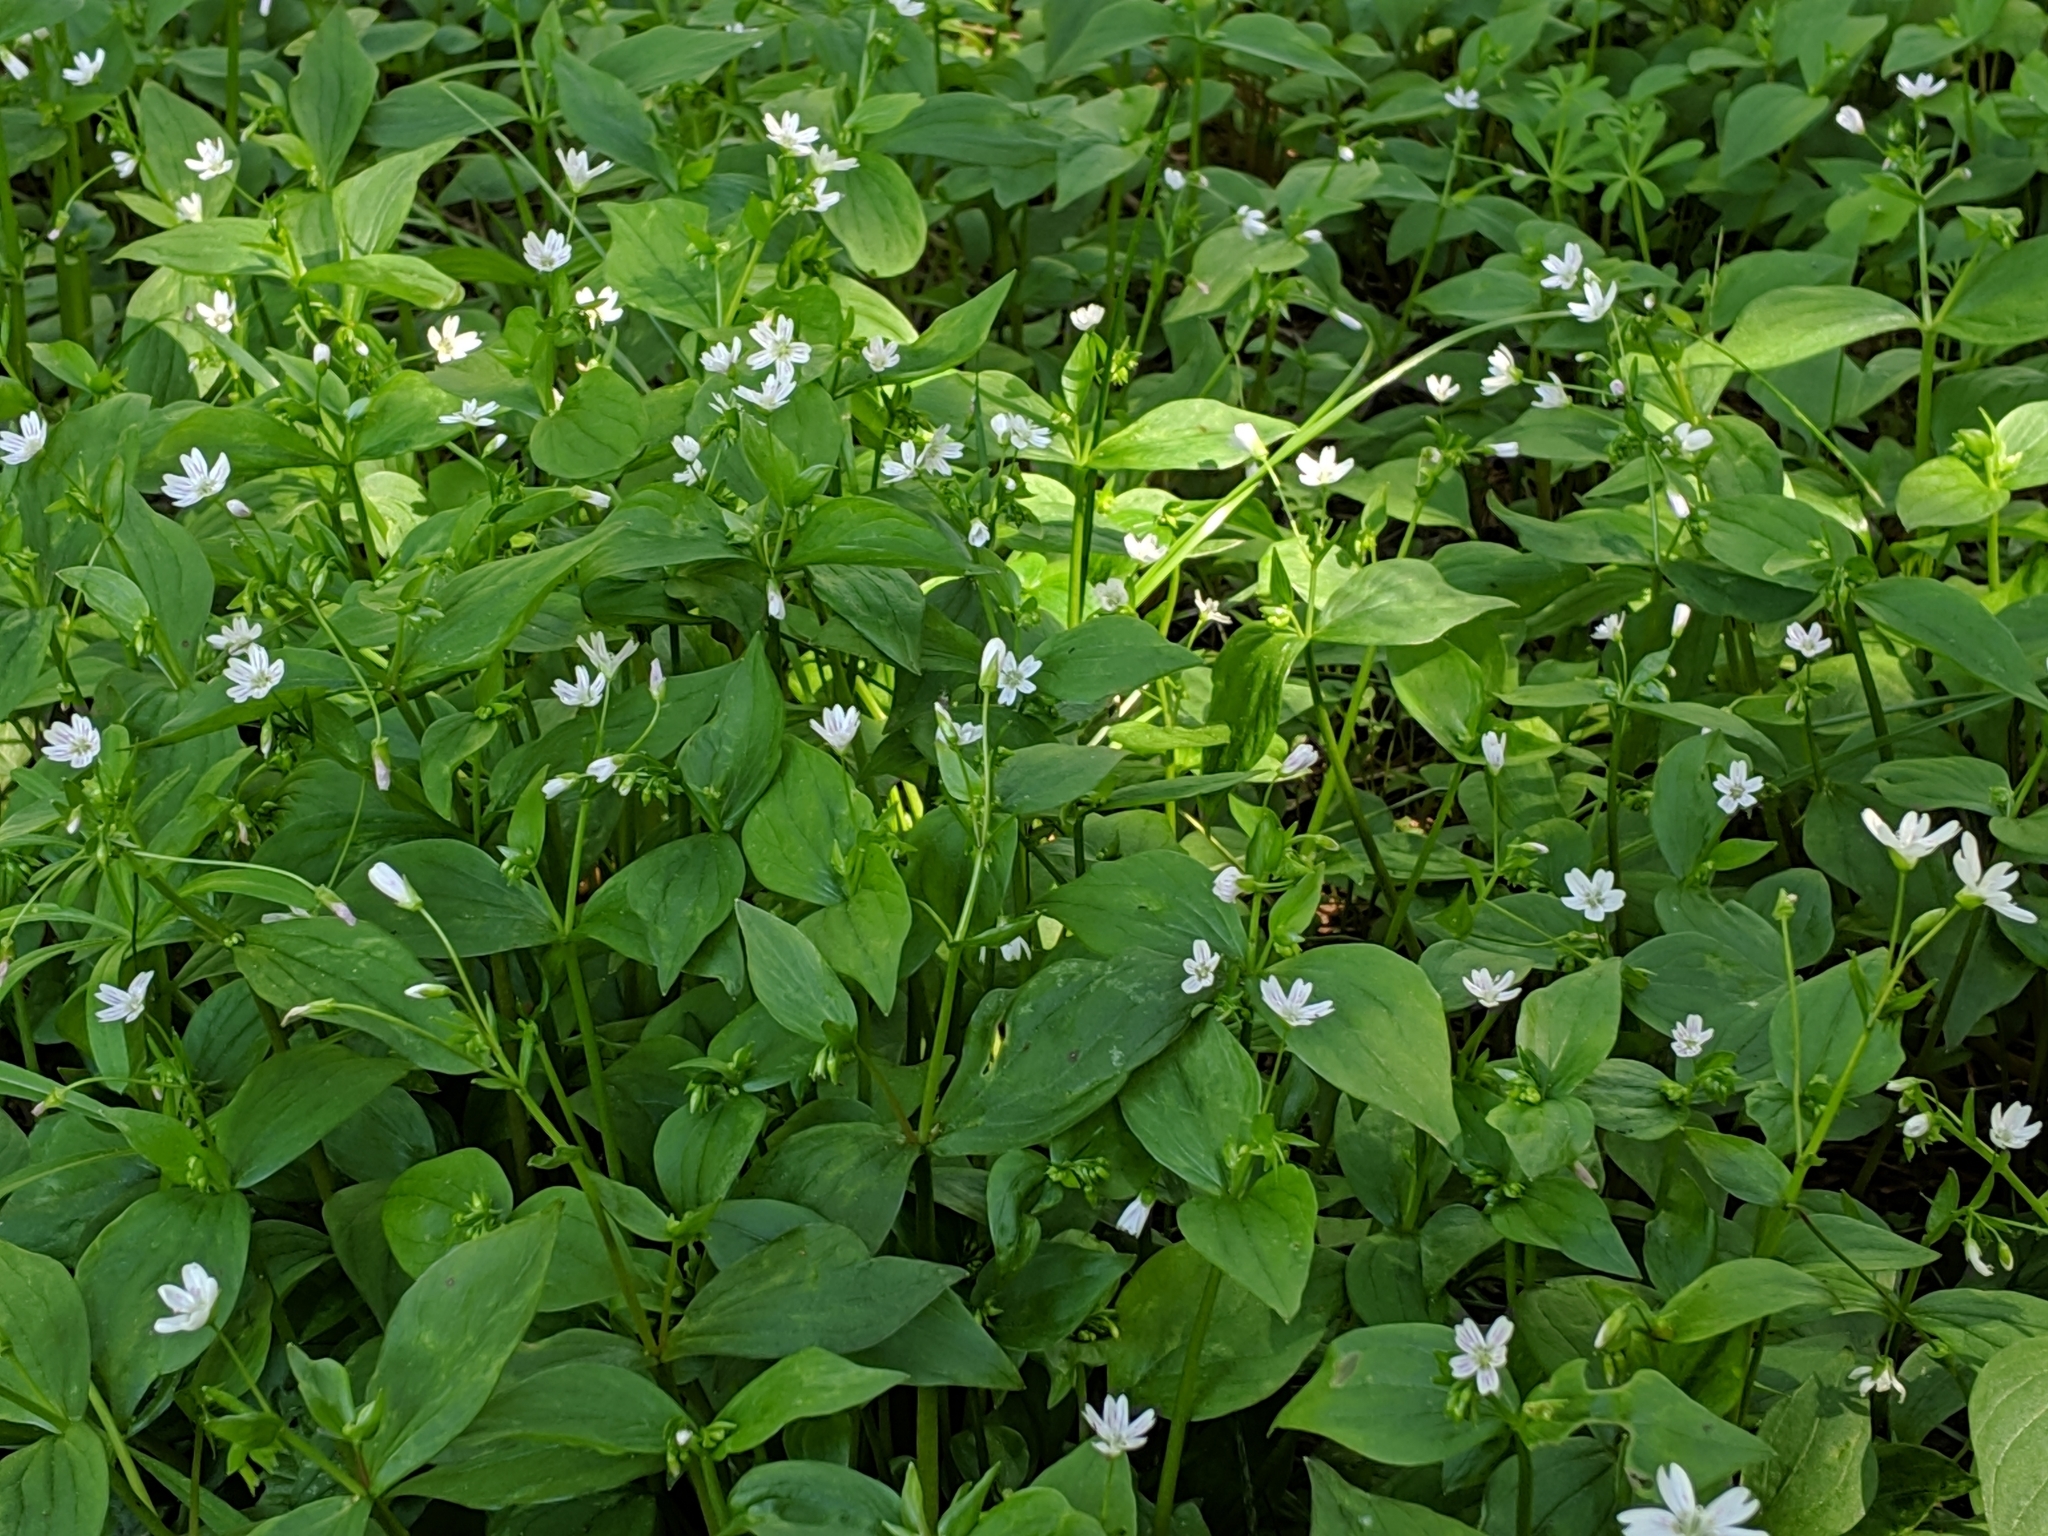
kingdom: Plantae
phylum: Tracheophyta
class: Magnoliopsida
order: Caryophyllales
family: Montiaceae
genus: Claytonia
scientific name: Claytonia sibirica
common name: Pink purslane
